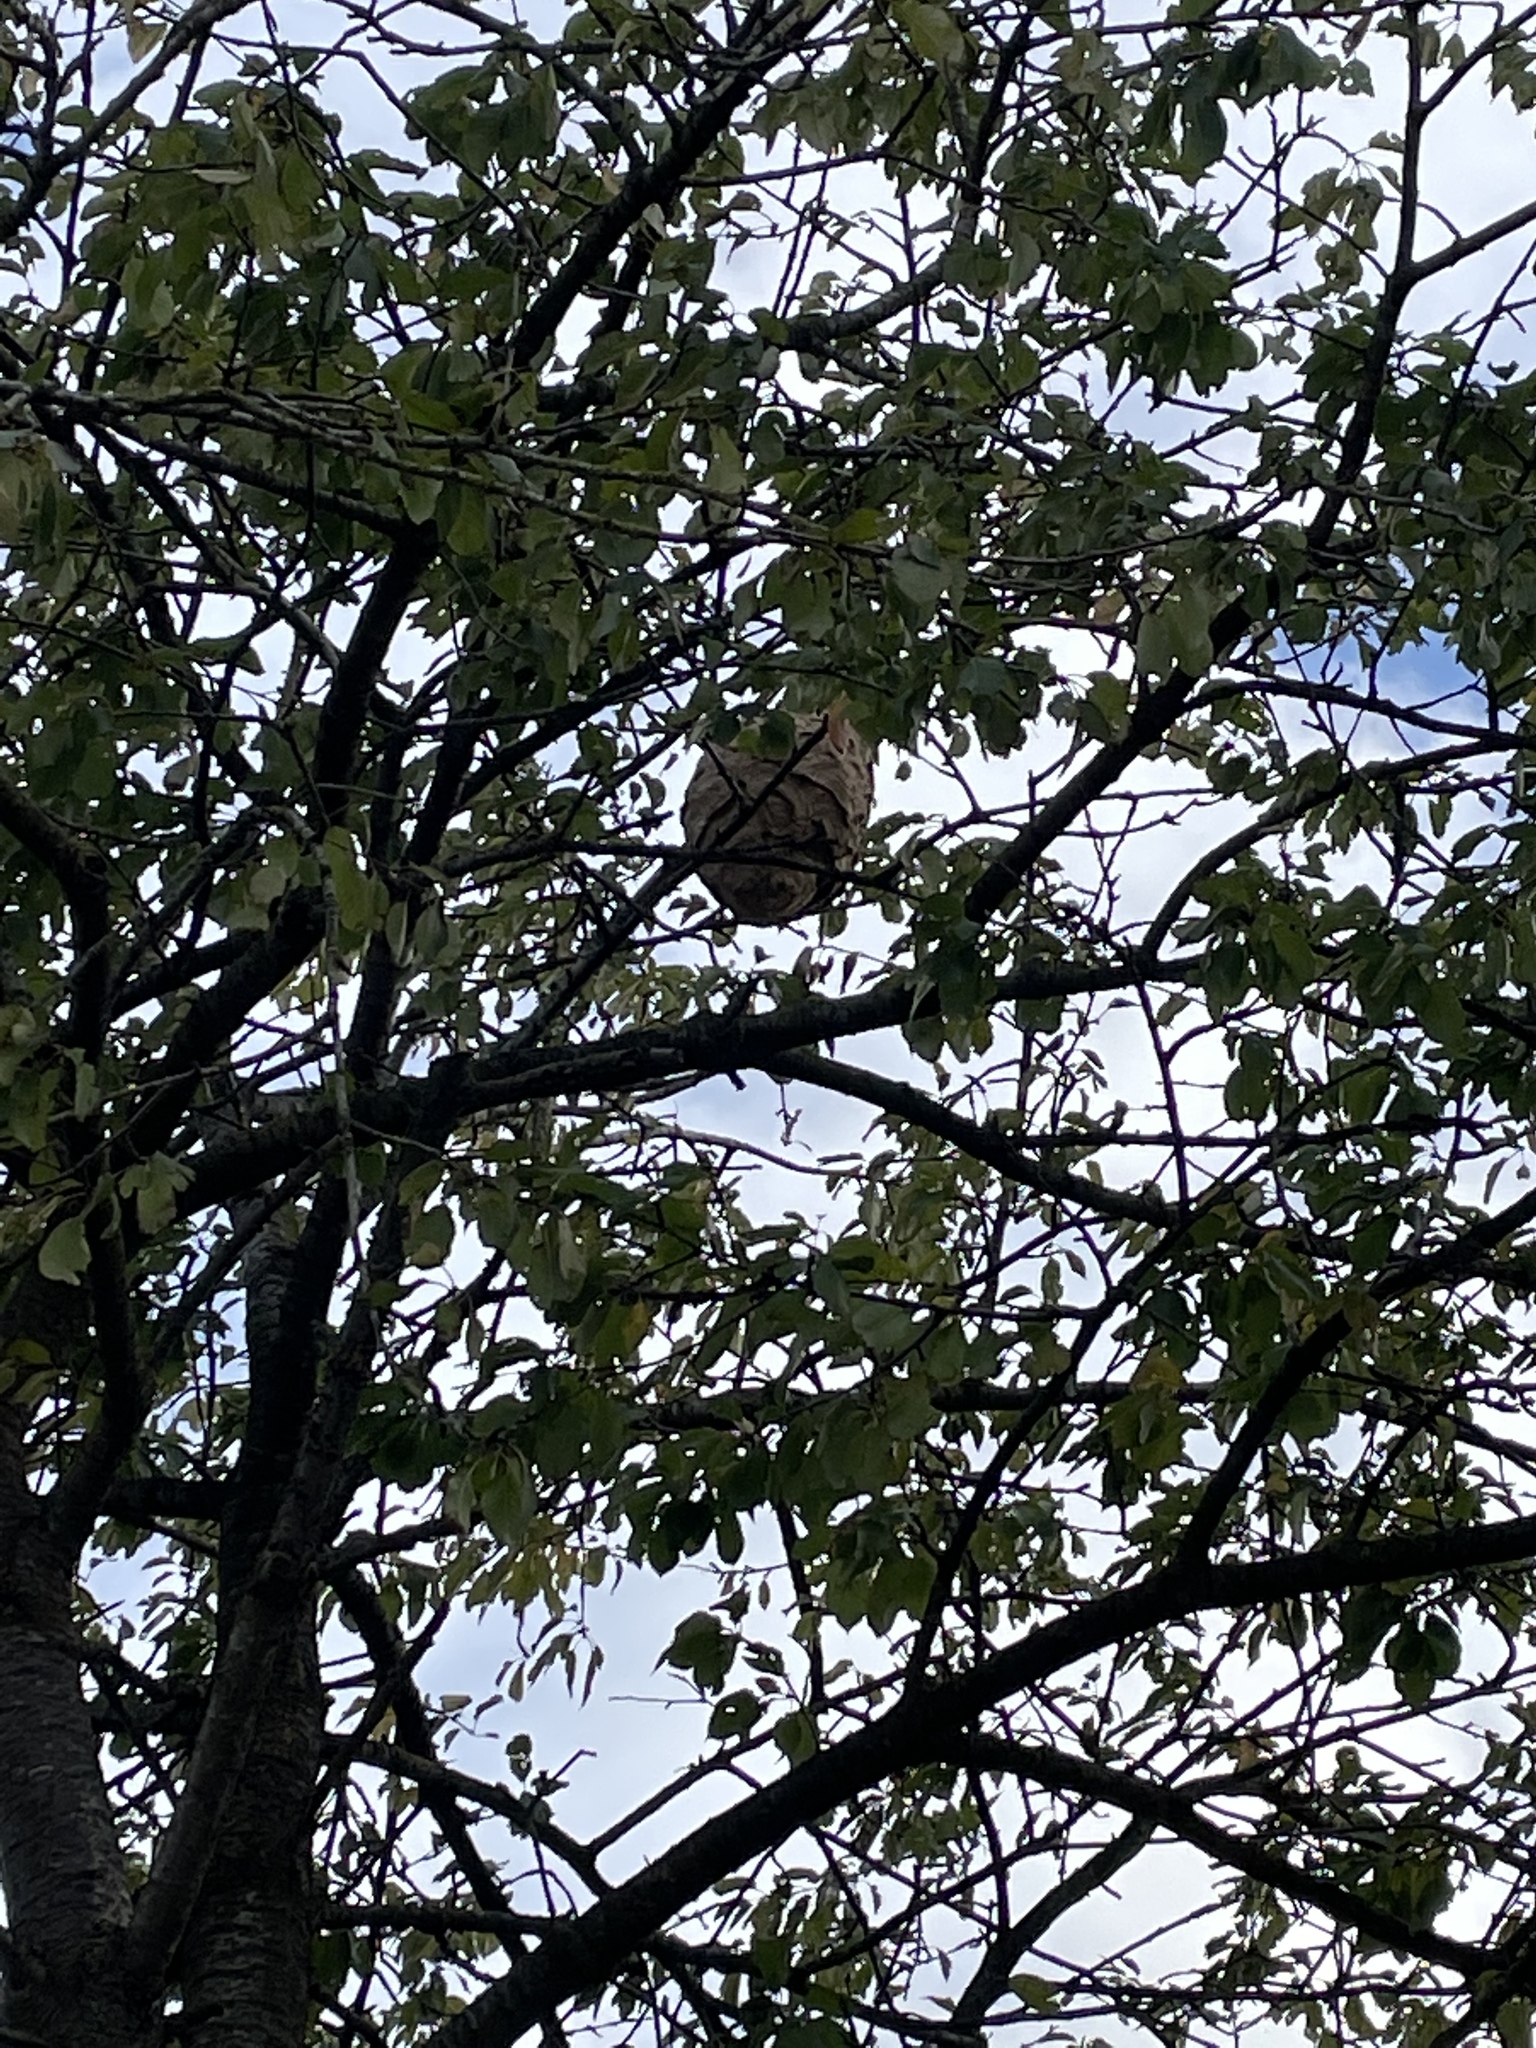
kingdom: Animalia
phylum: Arthropoda
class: Insecta
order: Hymenoptera
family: Vespidae
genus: Vespa
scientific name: Vespa velutina
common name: Asian hornet
